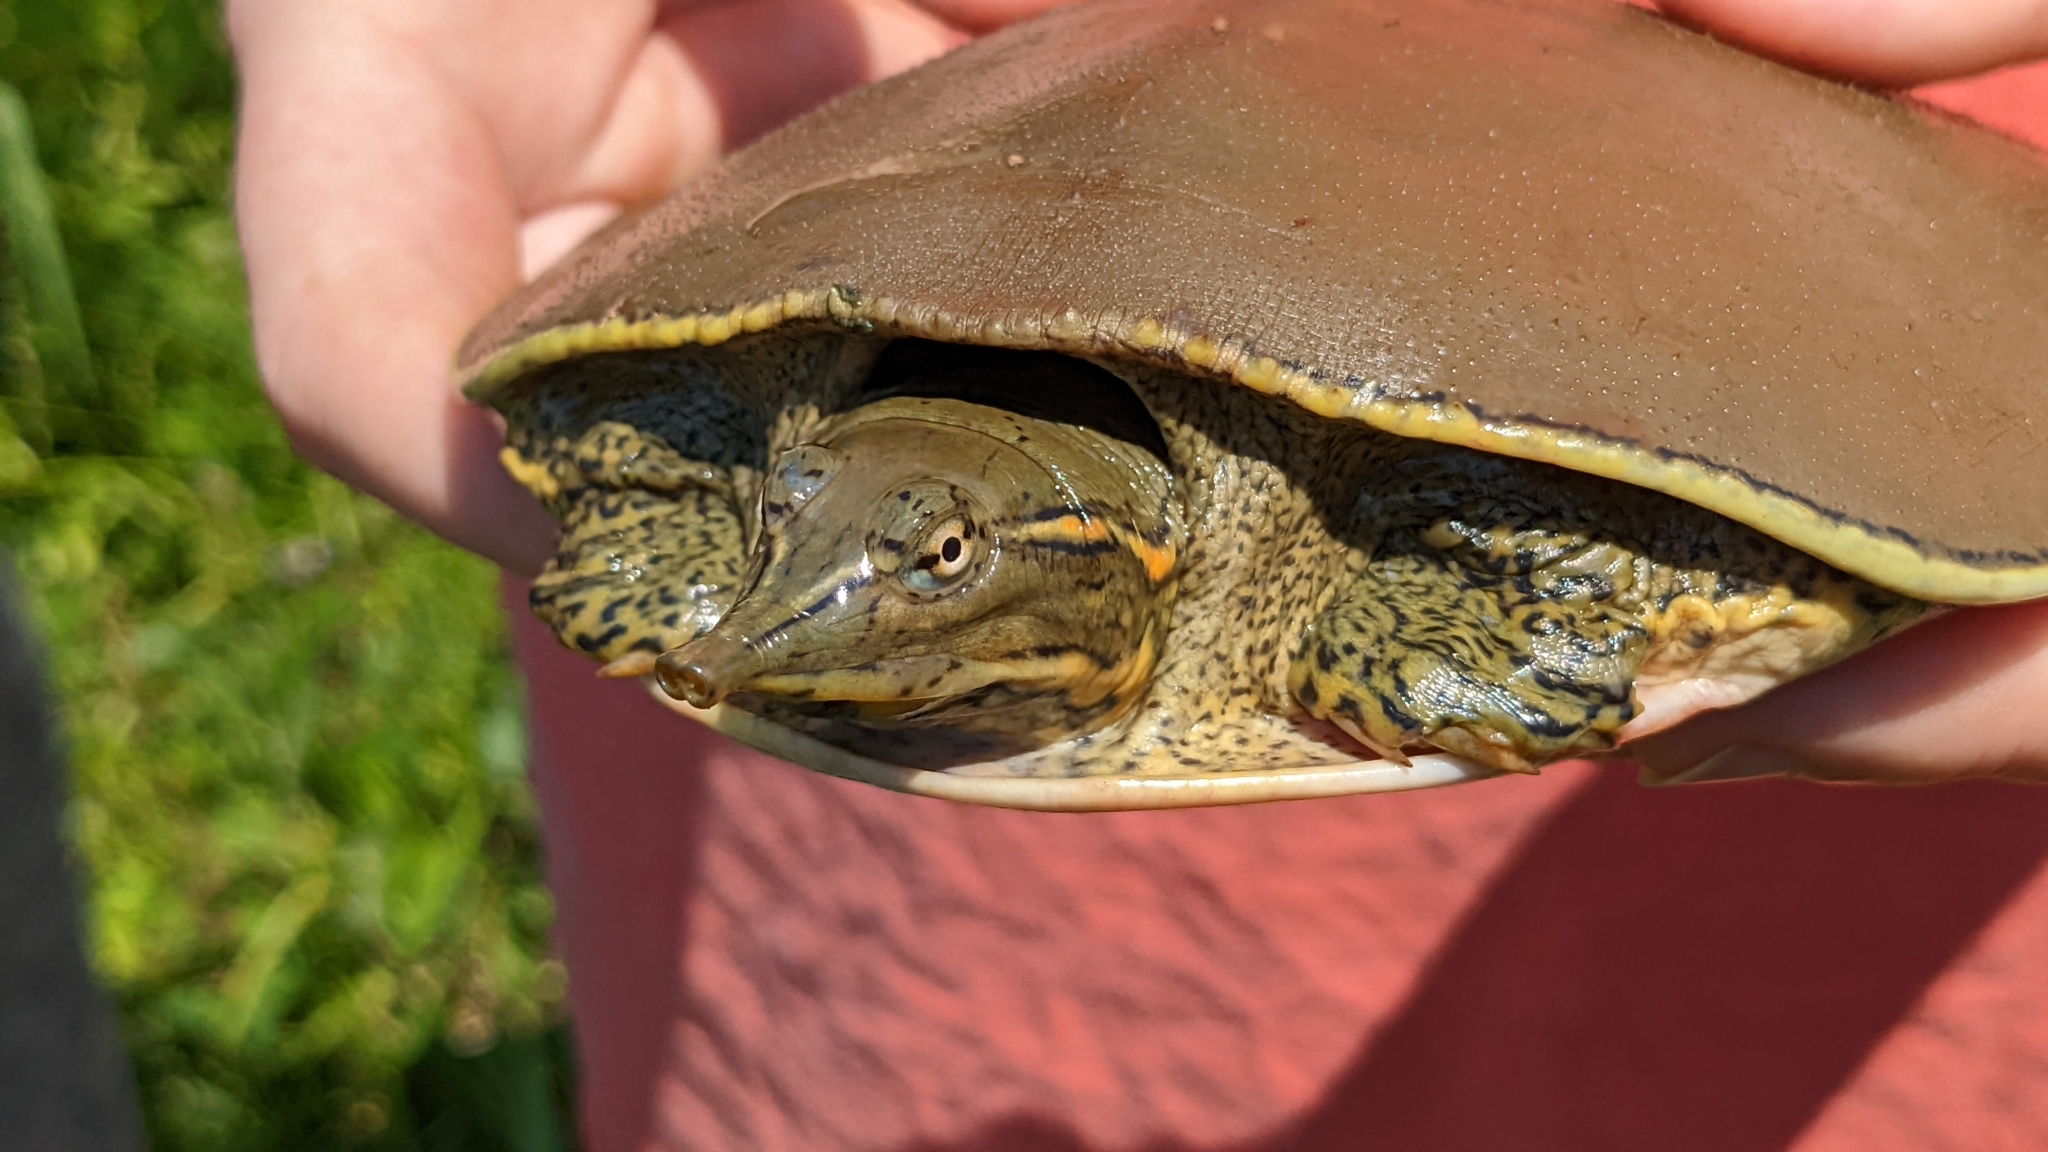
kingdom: Animalia
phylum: Chordata
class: Testudines
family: Trionychidae
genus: Apalone
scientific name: Apalone spinifera
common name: Spiny softshell turtle
